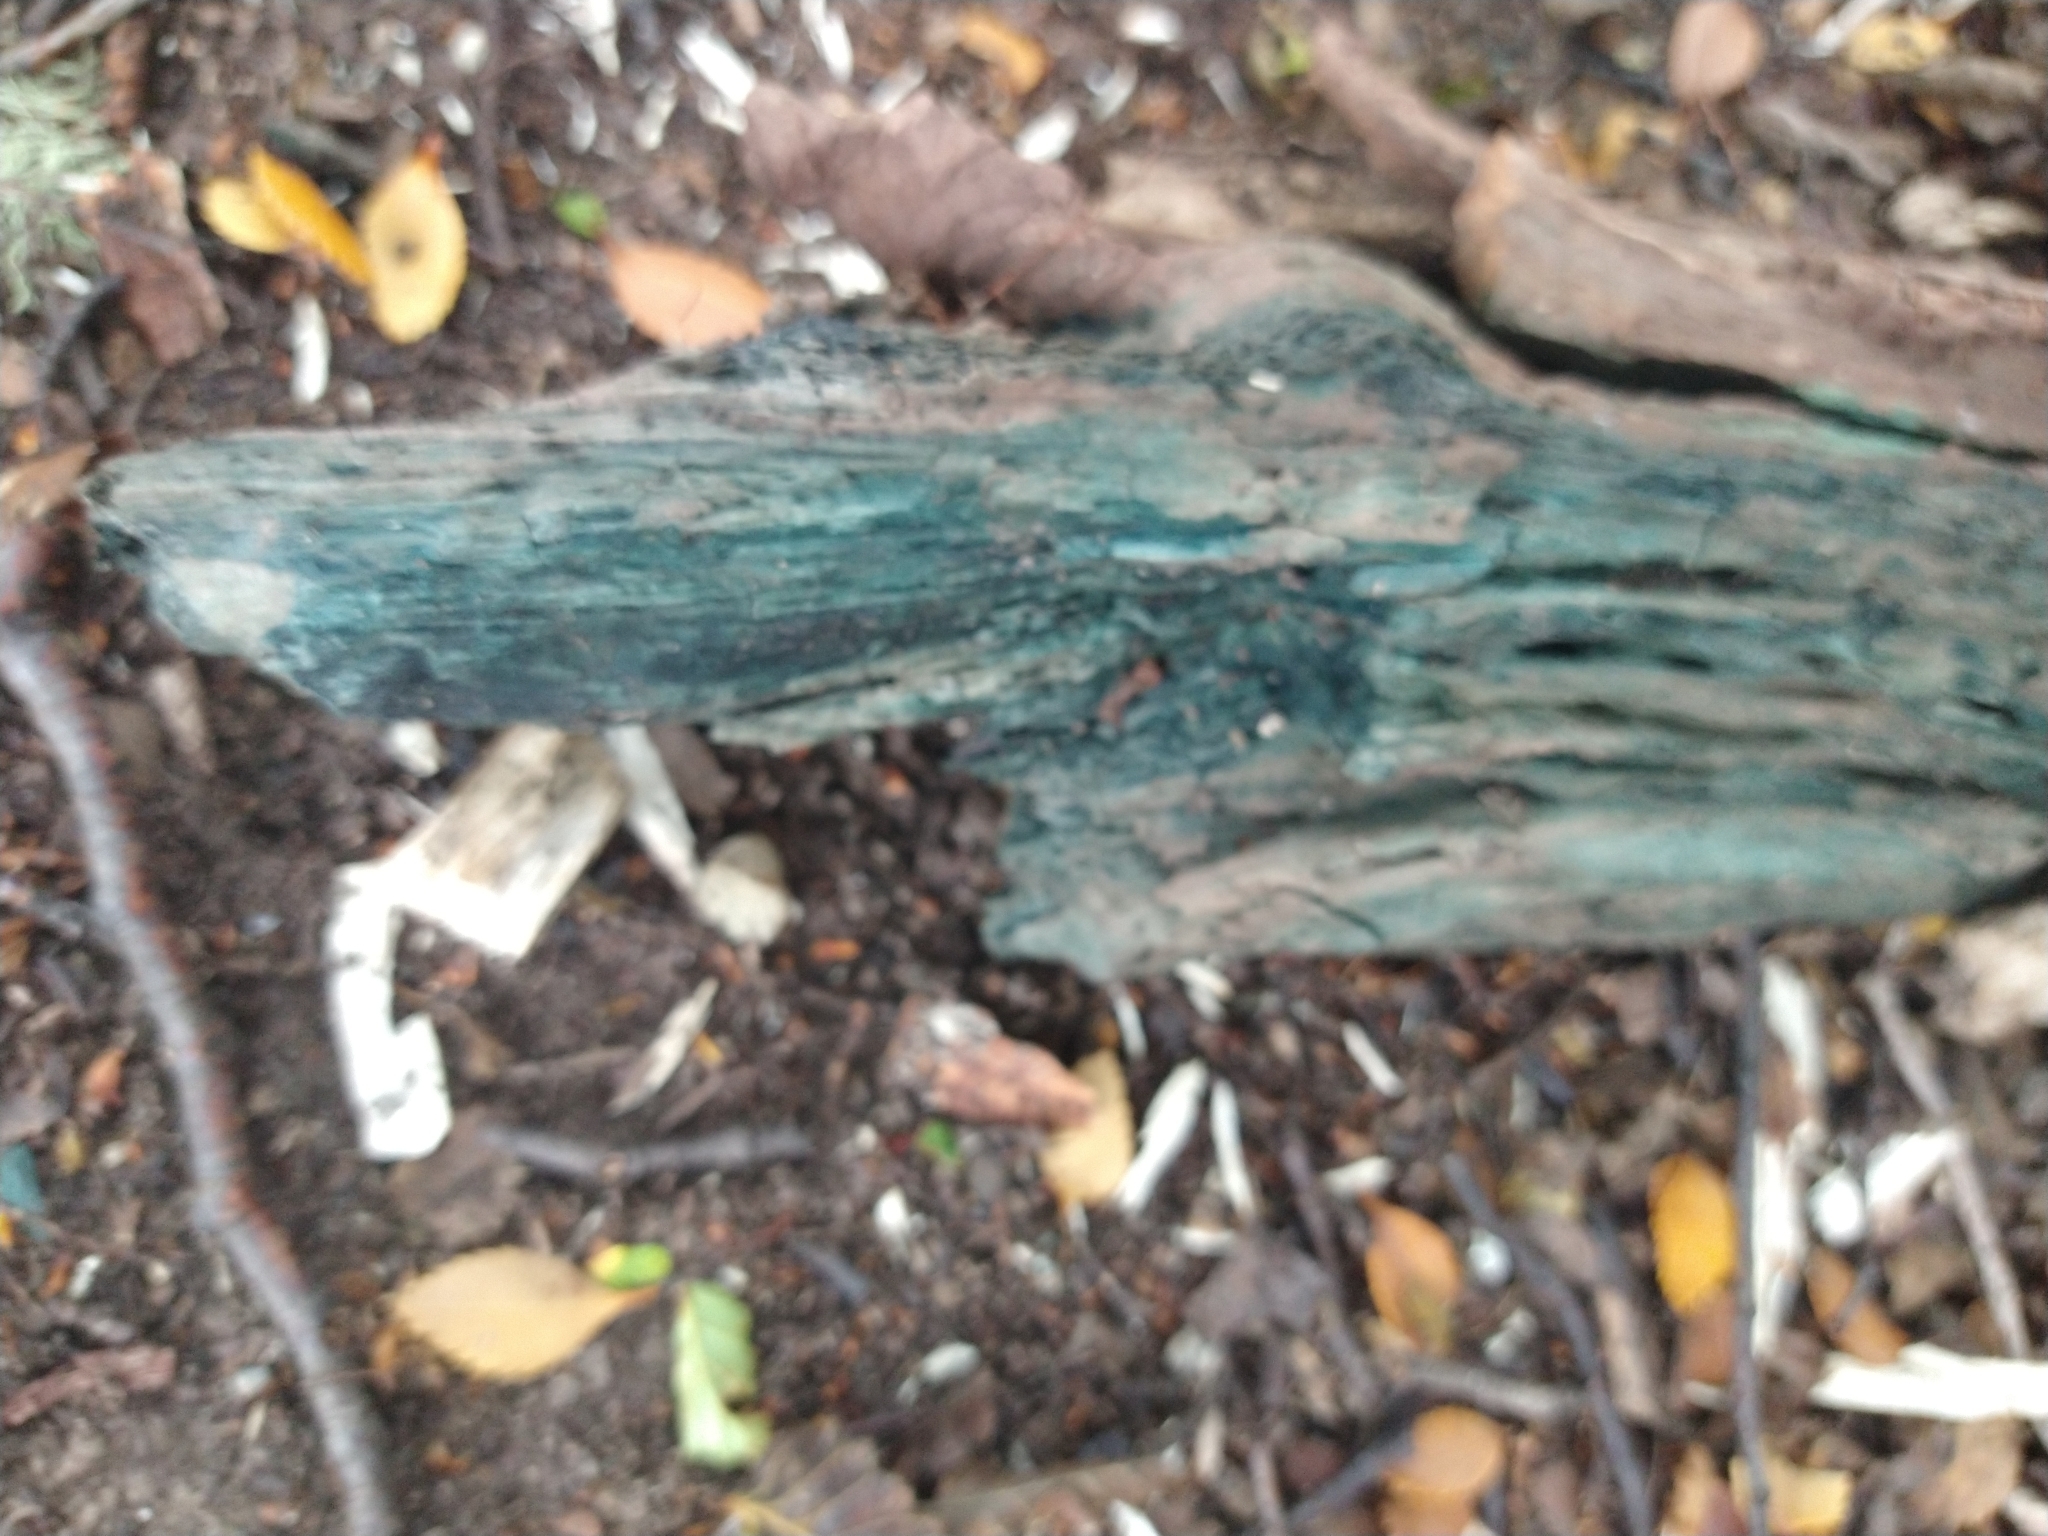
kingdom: Fungi
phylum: Ascomycota
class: Leotiomycetes
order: Helotiales
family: Chlorociboriaceae
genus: Chlorociboria
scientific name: Chlorociboria aeruginascens
